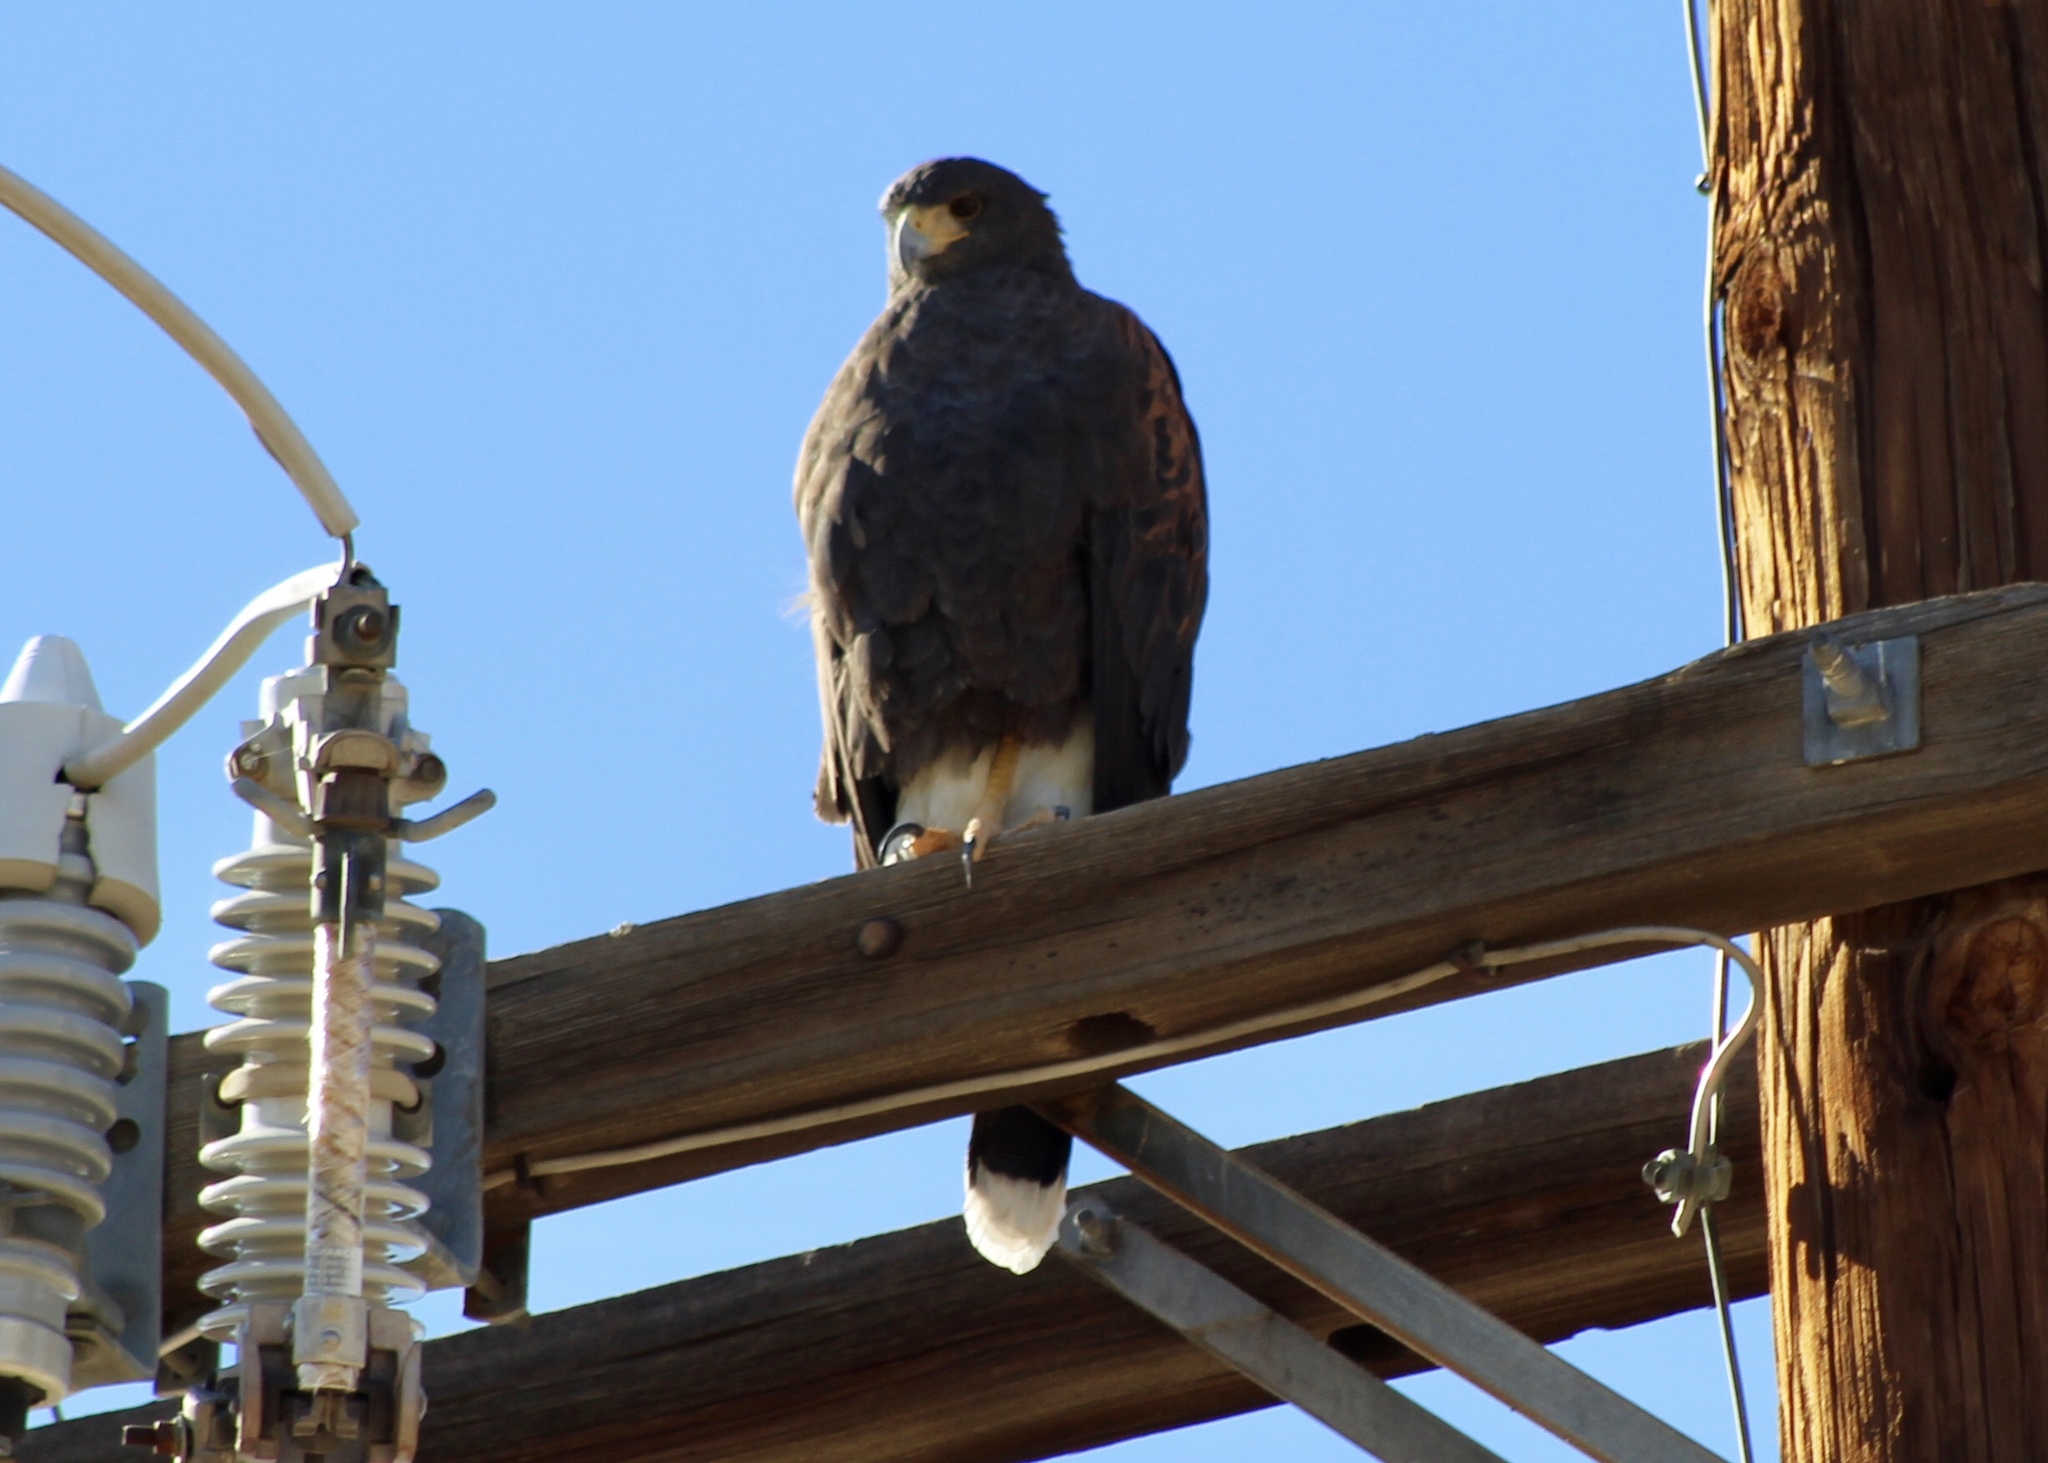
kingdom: Animalia
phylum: Chordata
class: Aves
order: Accipitriformes
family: Accipitridae
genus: Parabuteo
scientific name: Parabuteo unicinctus
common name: Harris's hawk
